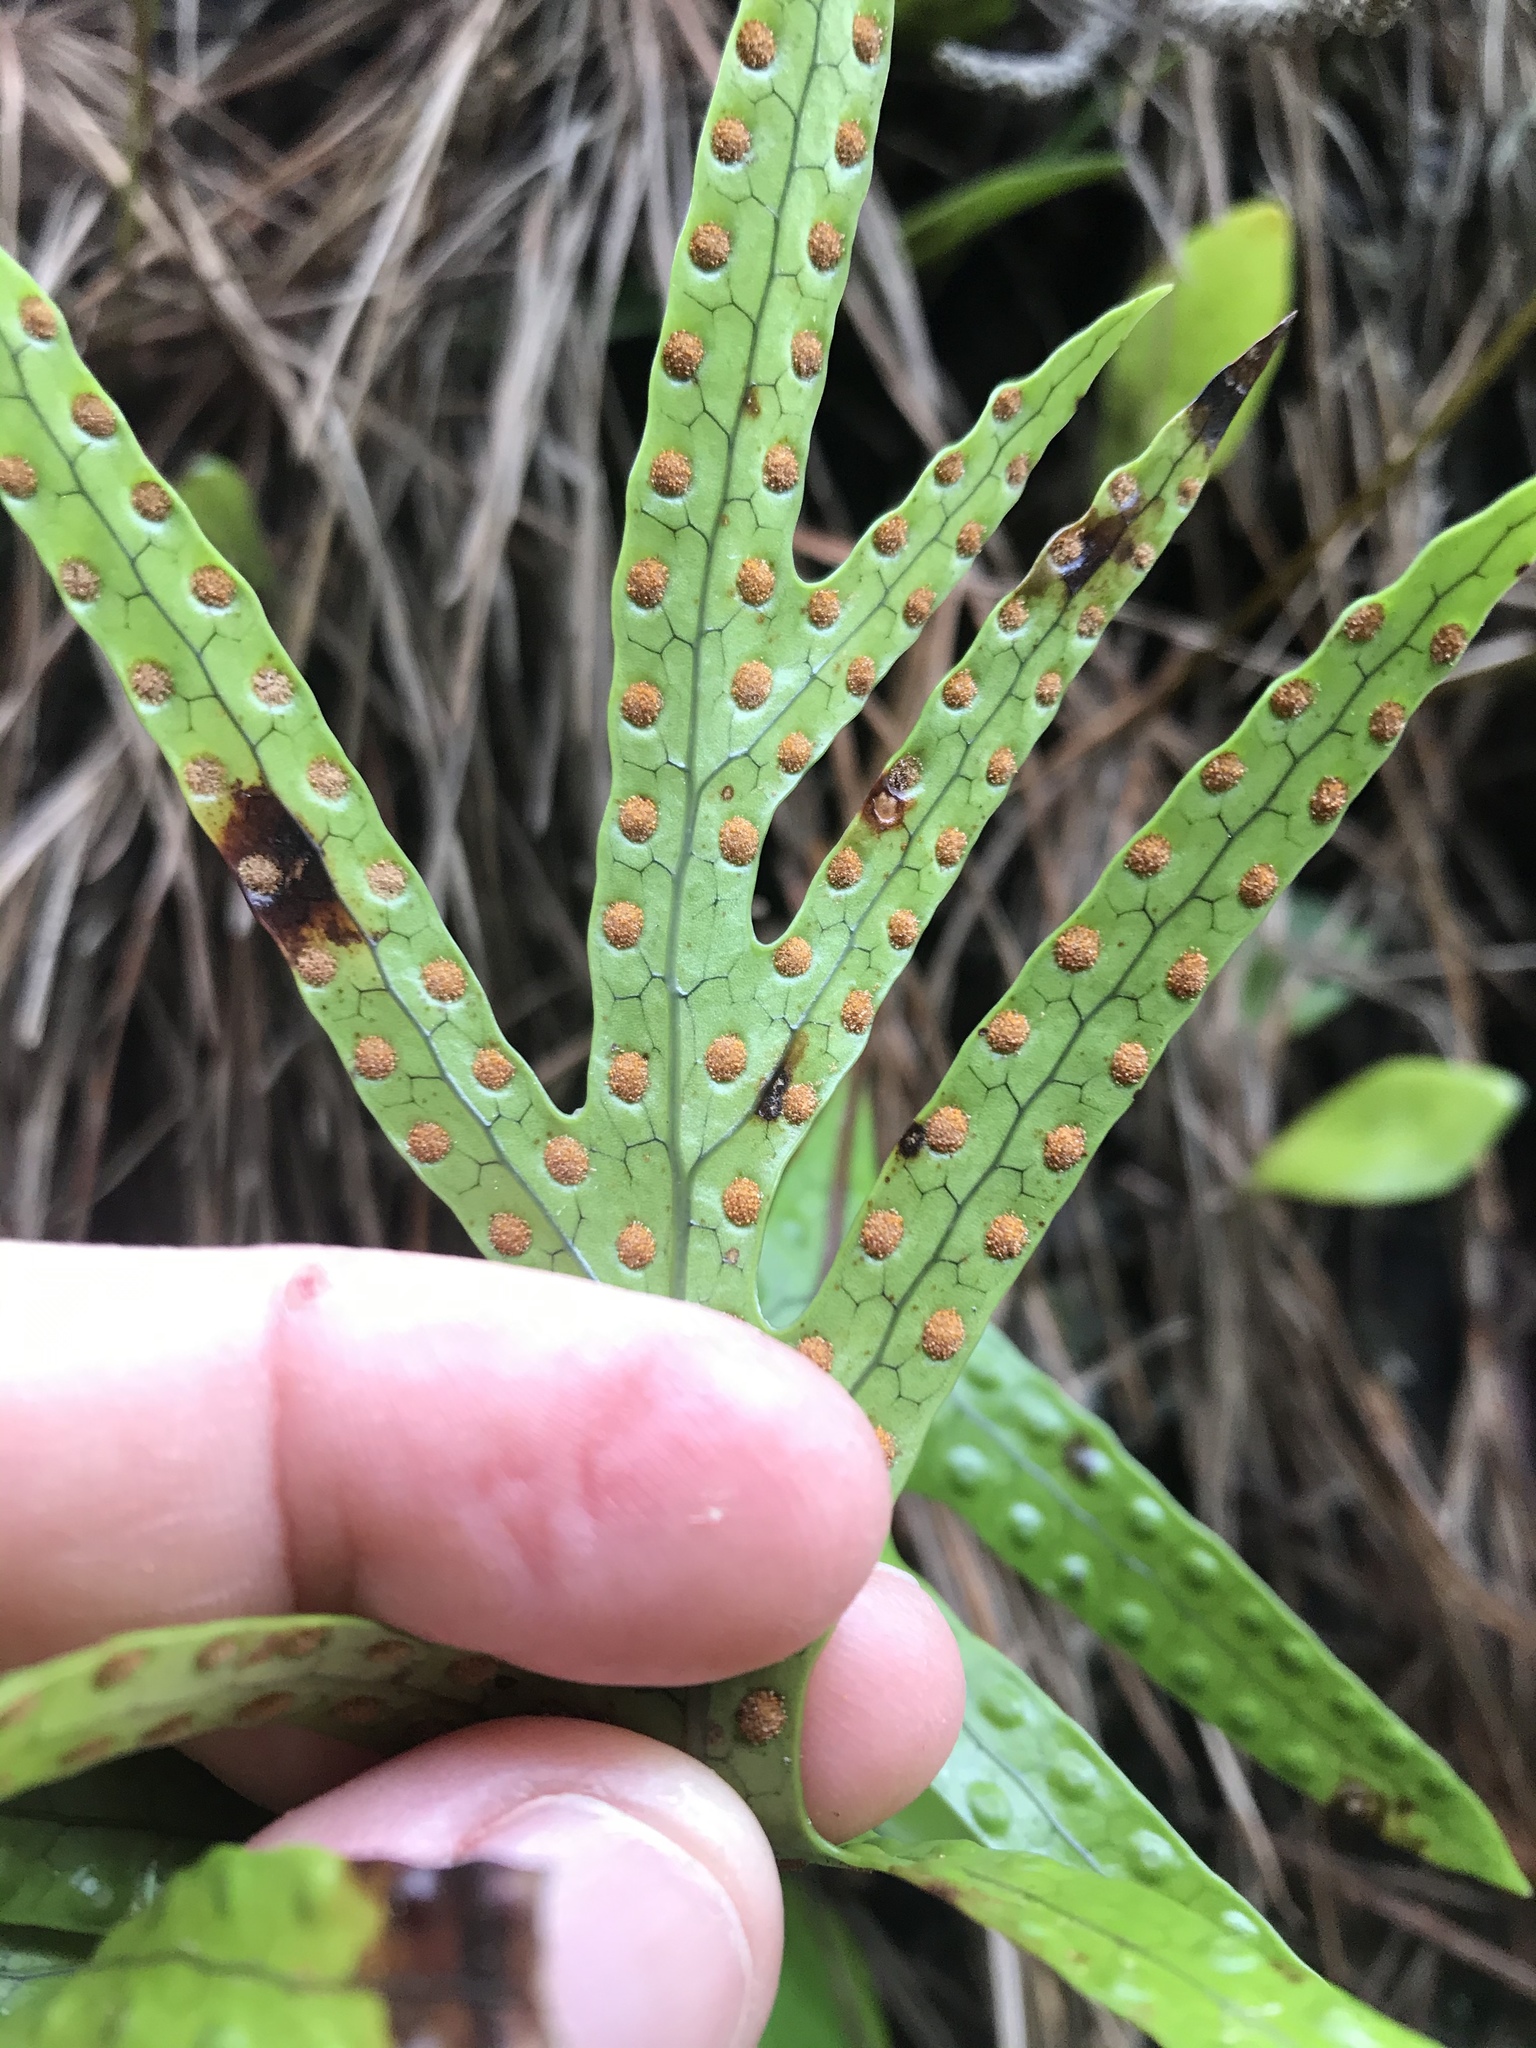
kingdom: Plantae
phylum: Tracheophyta
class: Polypodiopsida
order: Polypodiales
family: Polypodiaceae
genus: Lecanopteris
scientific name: Lecanopteris pustulata
